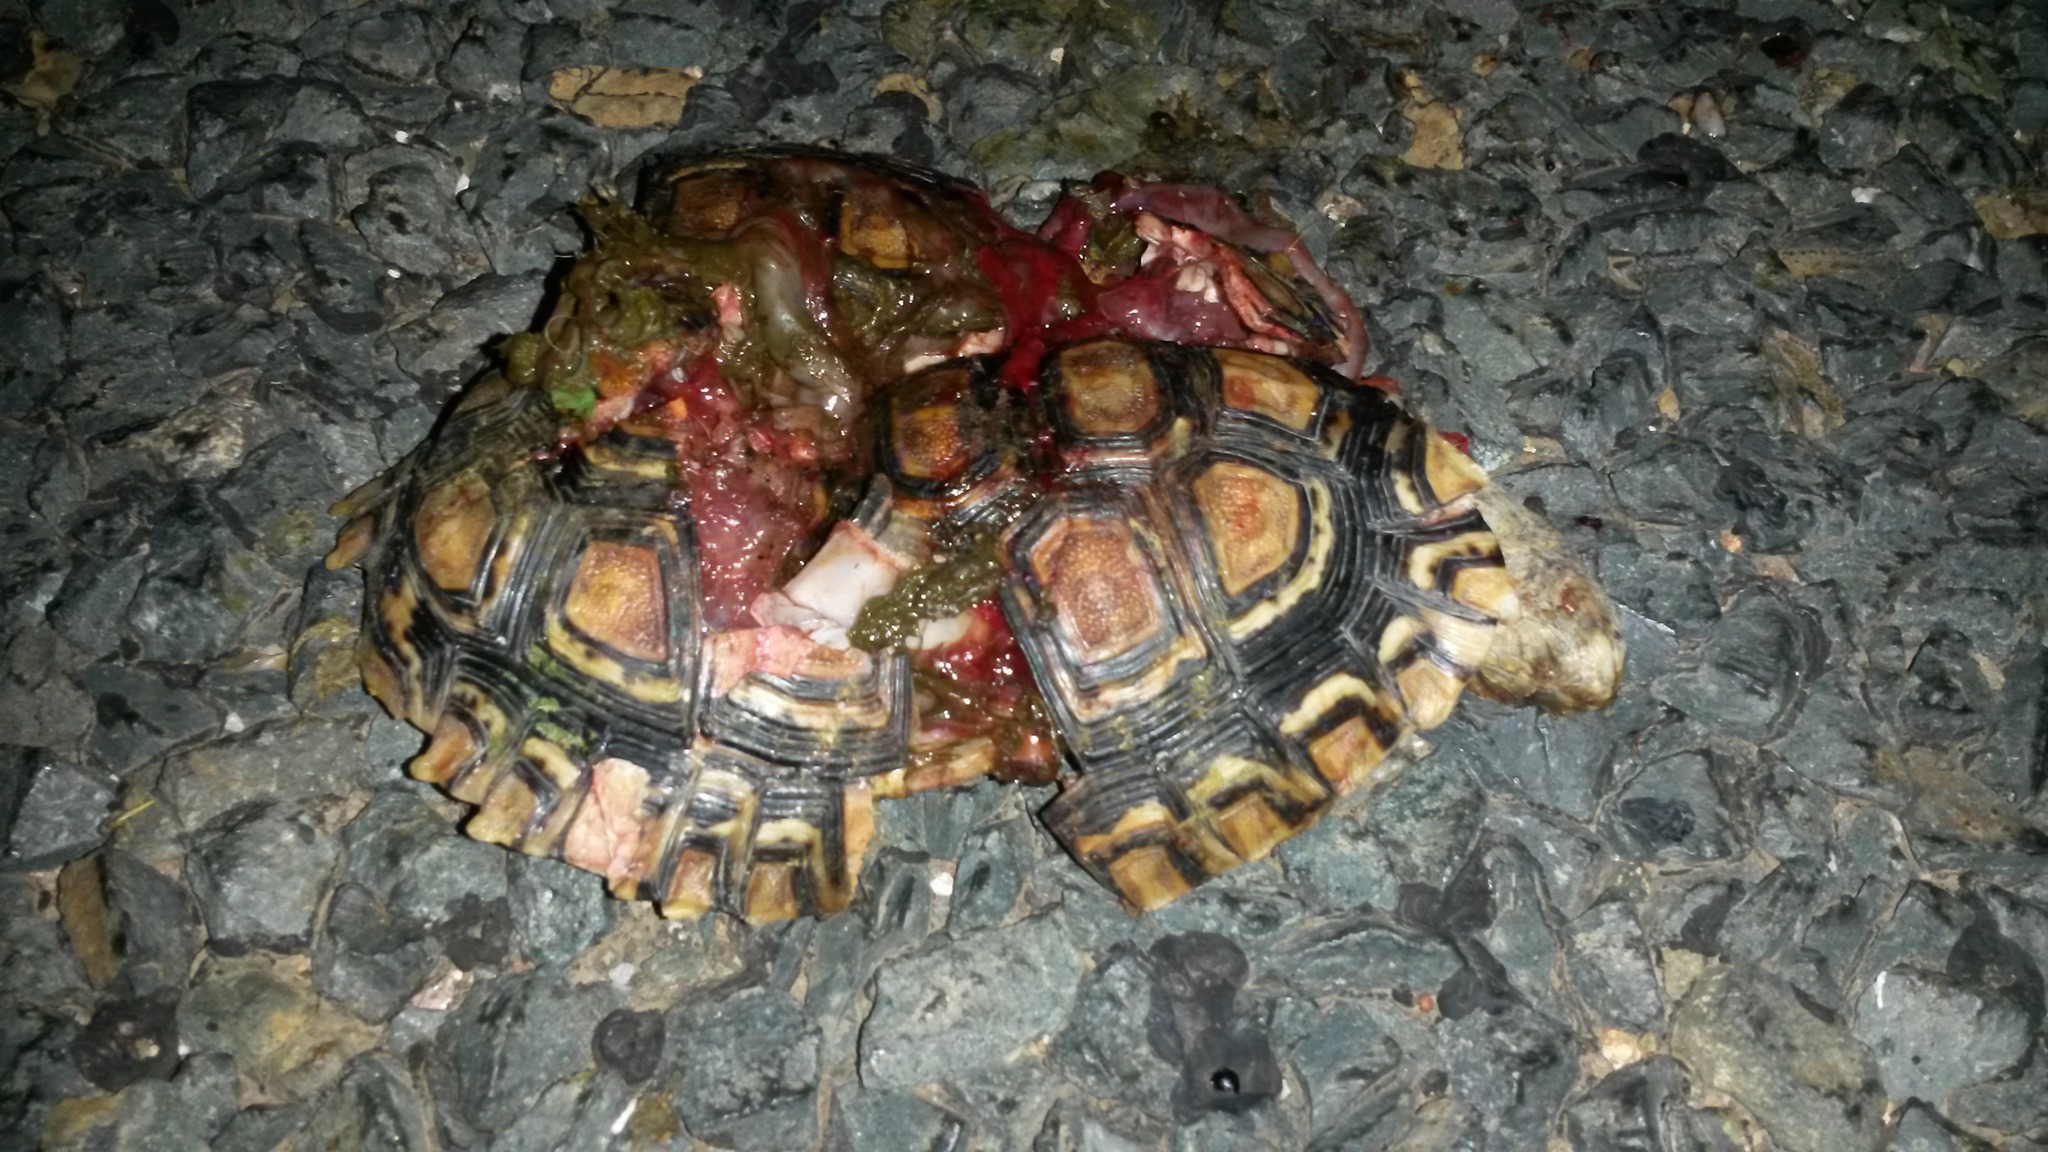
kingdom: Animalia
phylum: Chordata
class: Testudines
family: Testudinidae
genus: Stigmochelys
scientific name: Stigmochelys pardalis
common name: Leopard tortoise
